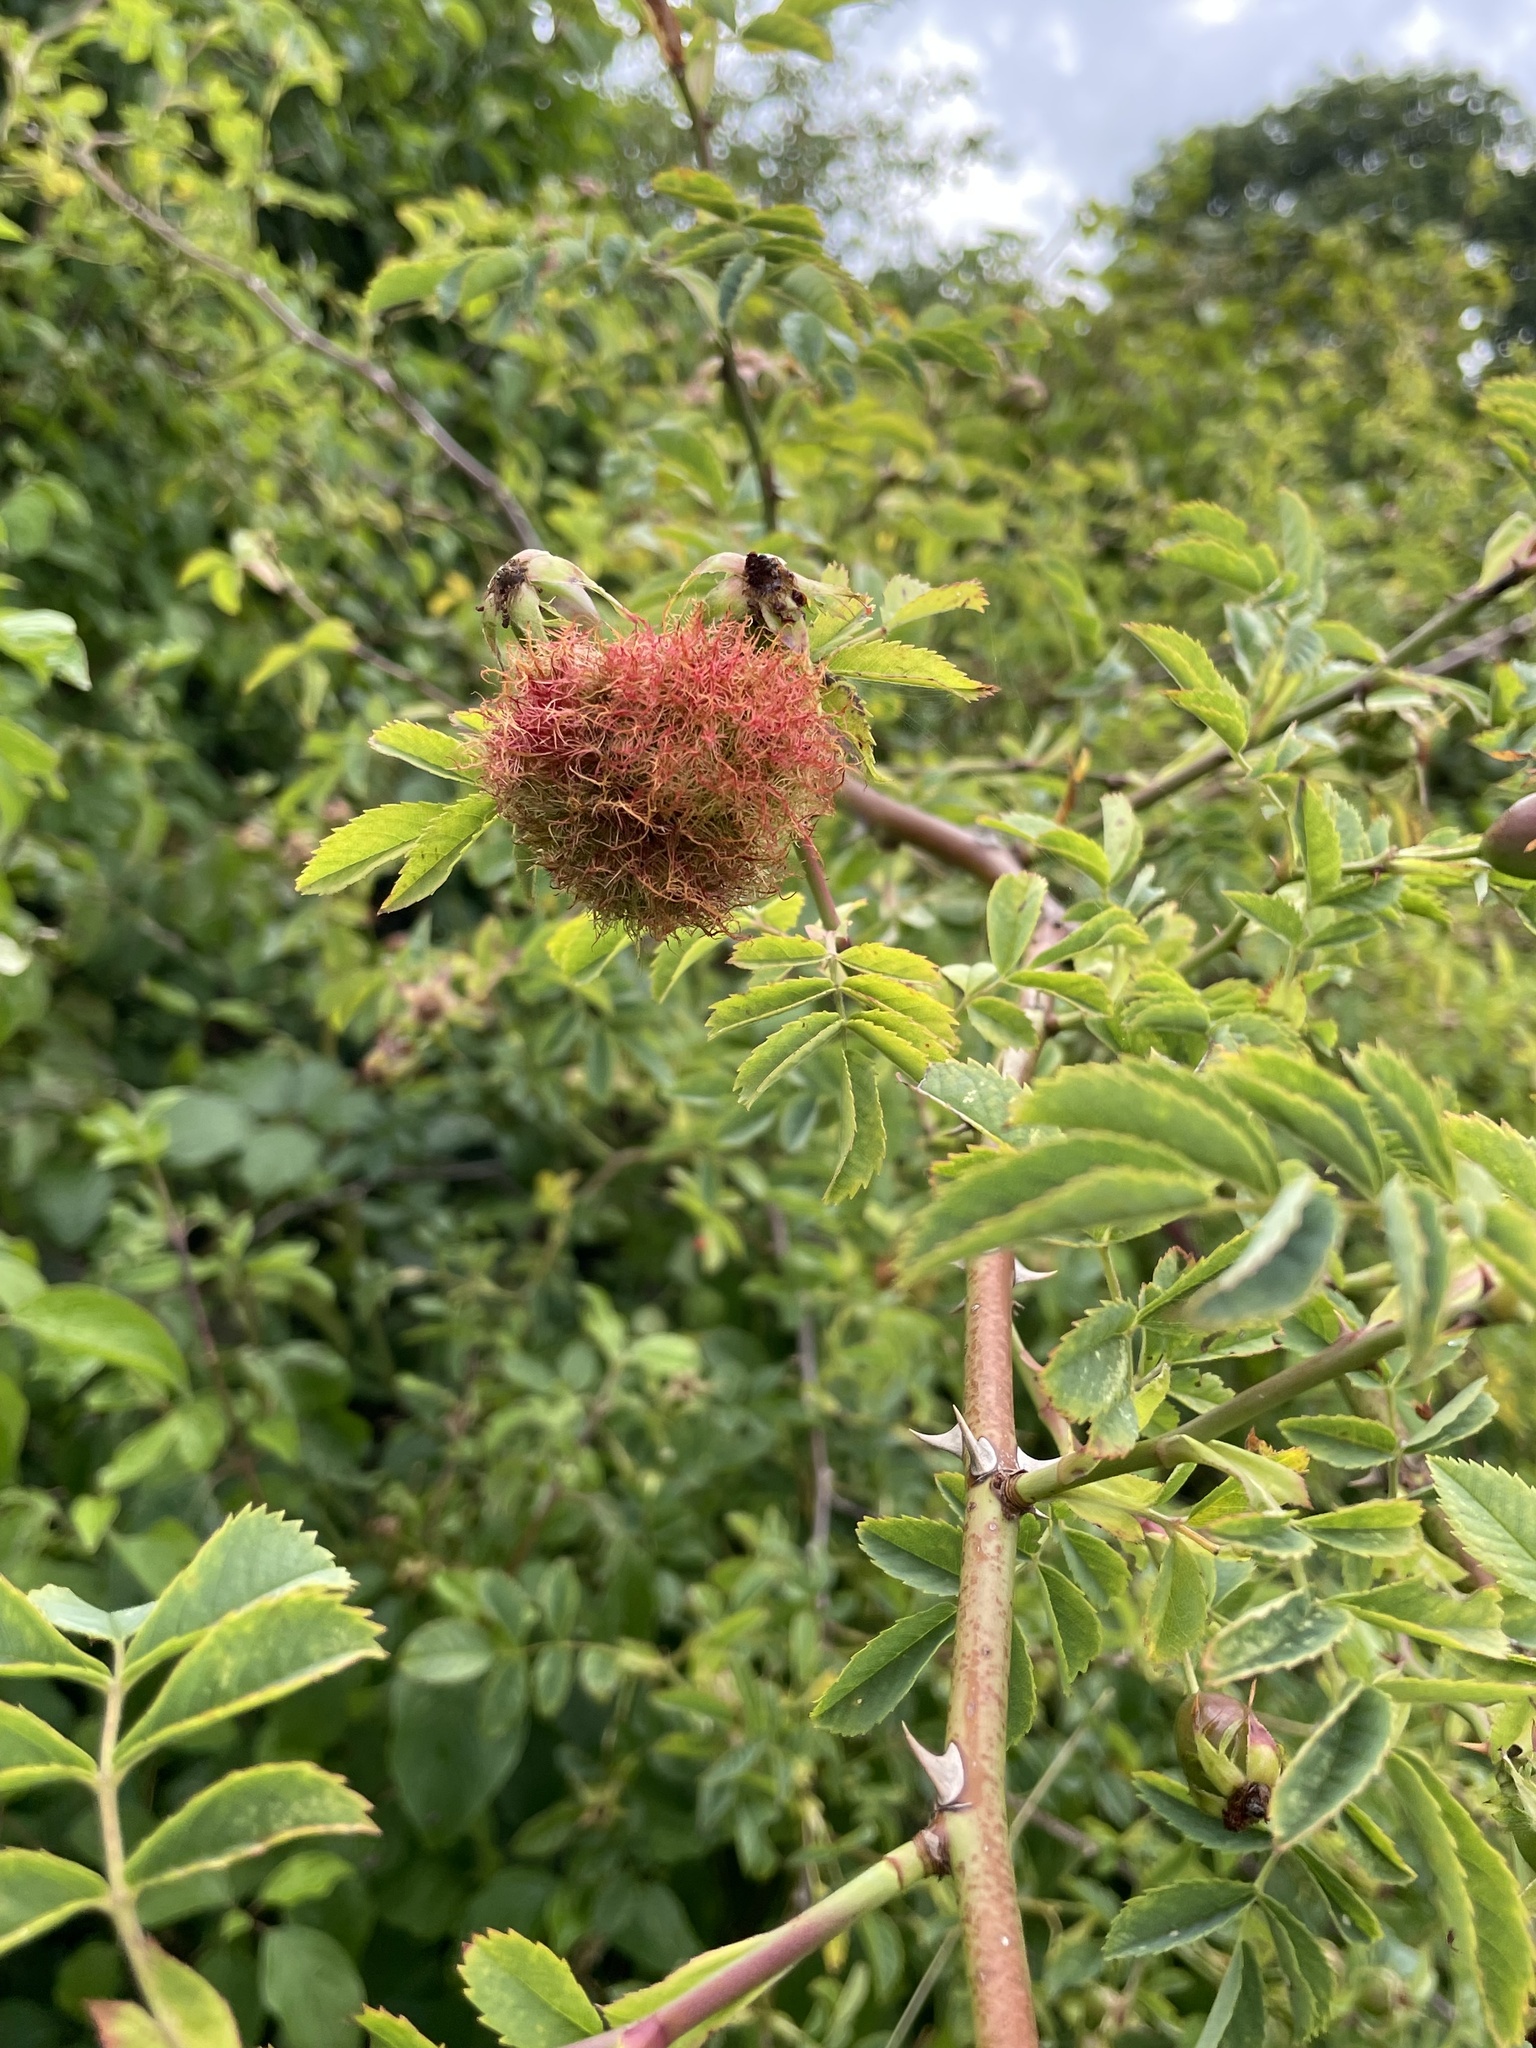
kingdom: Animalia
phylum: Arthropoda
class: Insecta
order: Hymenoptera
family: Cynipidae
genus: Diplolepis
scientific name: Diplolepis rosae
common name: Bedeguar gall
